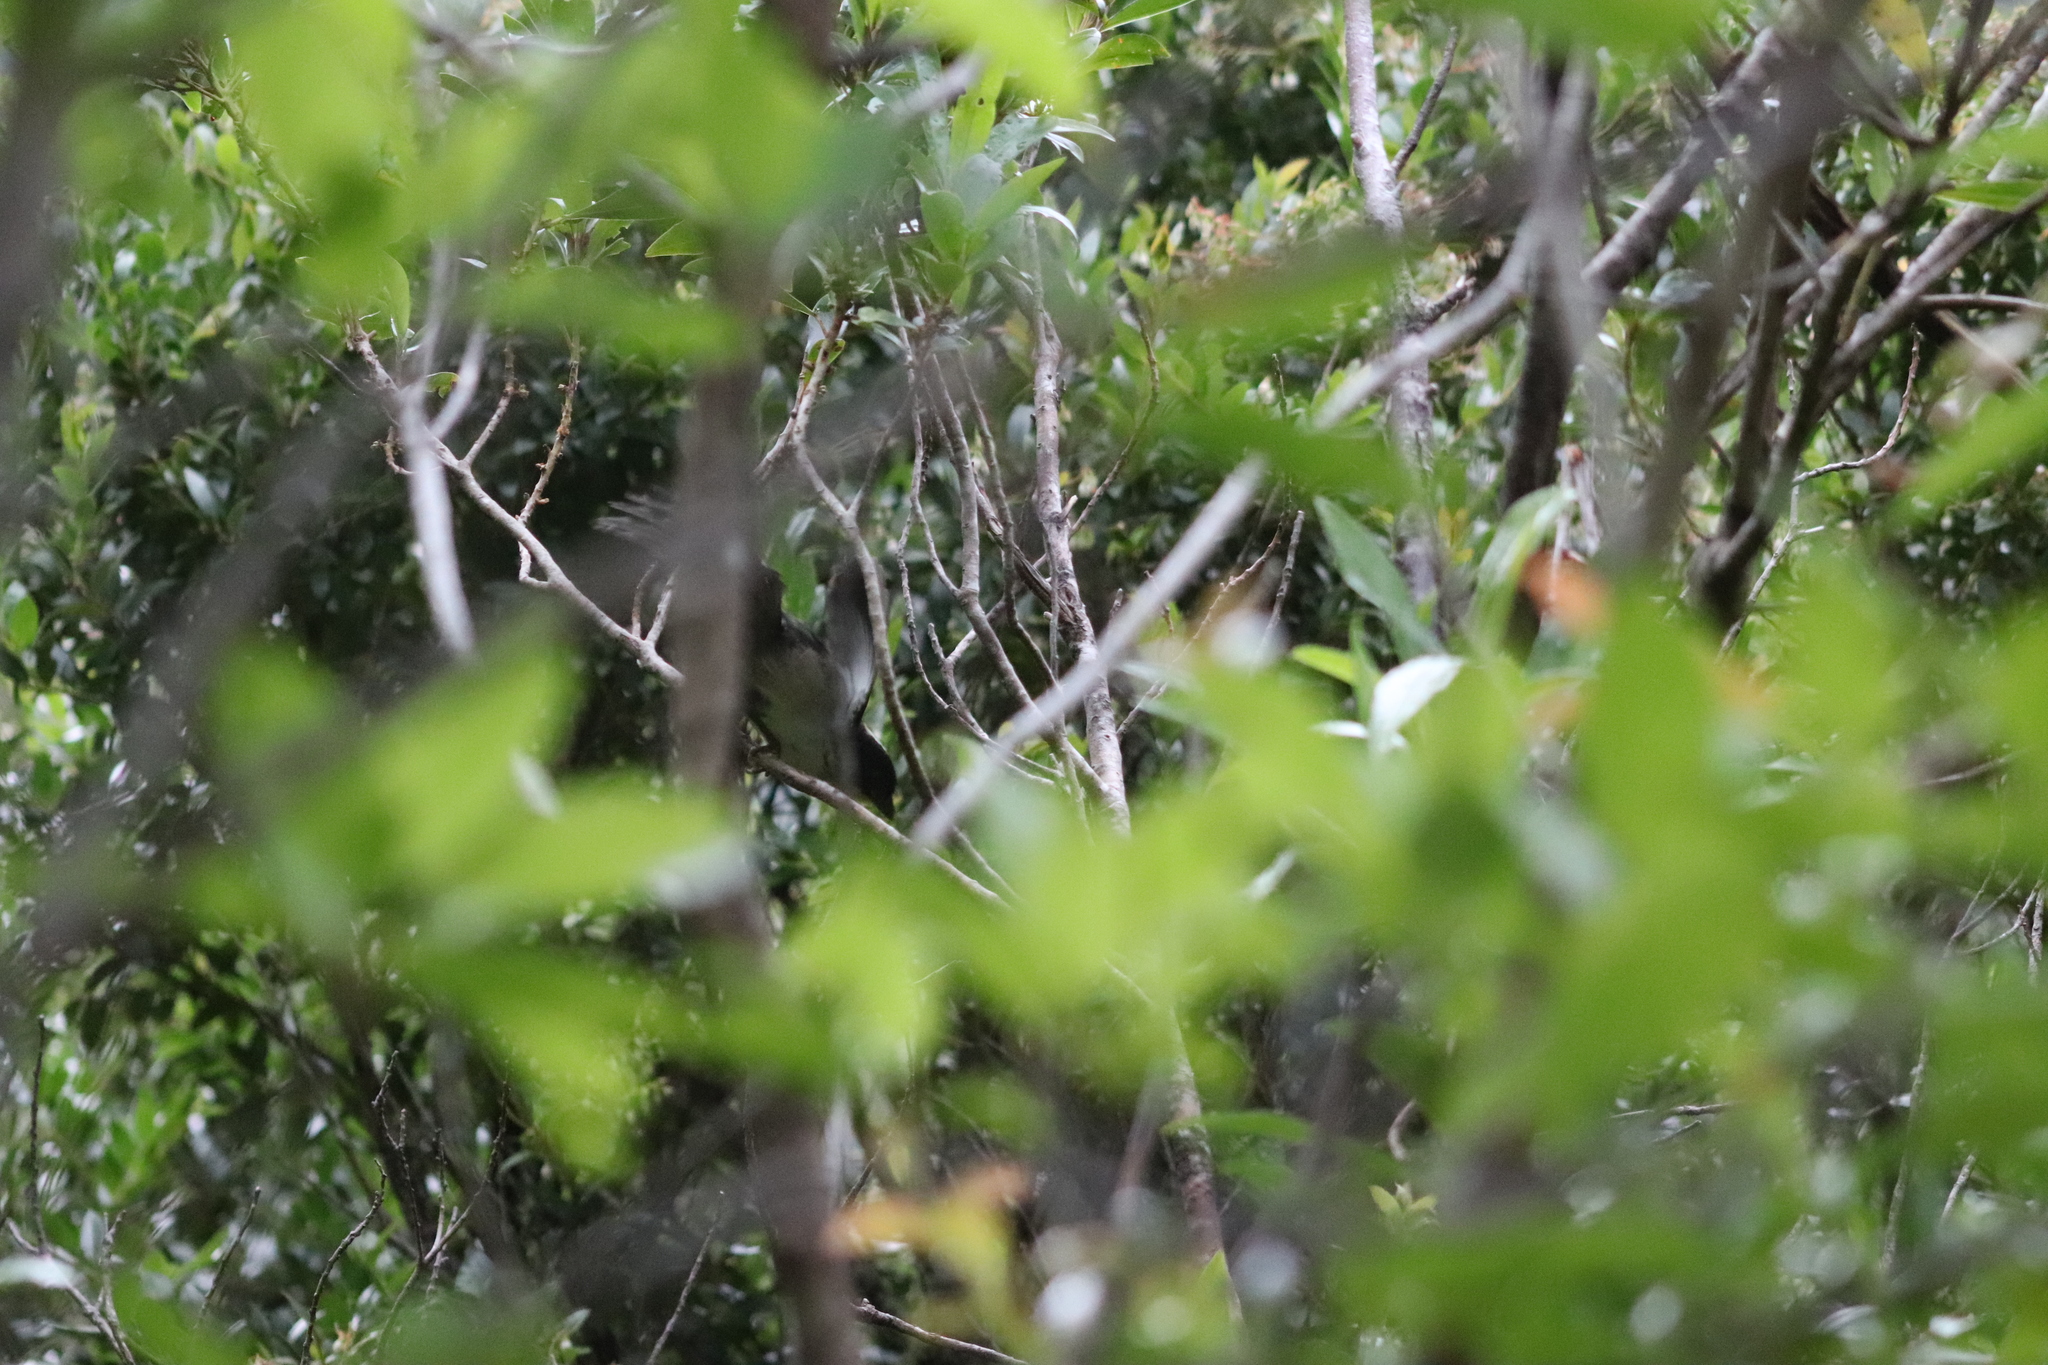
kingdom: Animalia
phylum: Chordata
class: Aves
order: Passeriformes
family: Passerellidae
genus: Atlapetes
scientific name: Atlapetes albinucha
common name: White-naped brush-finch
